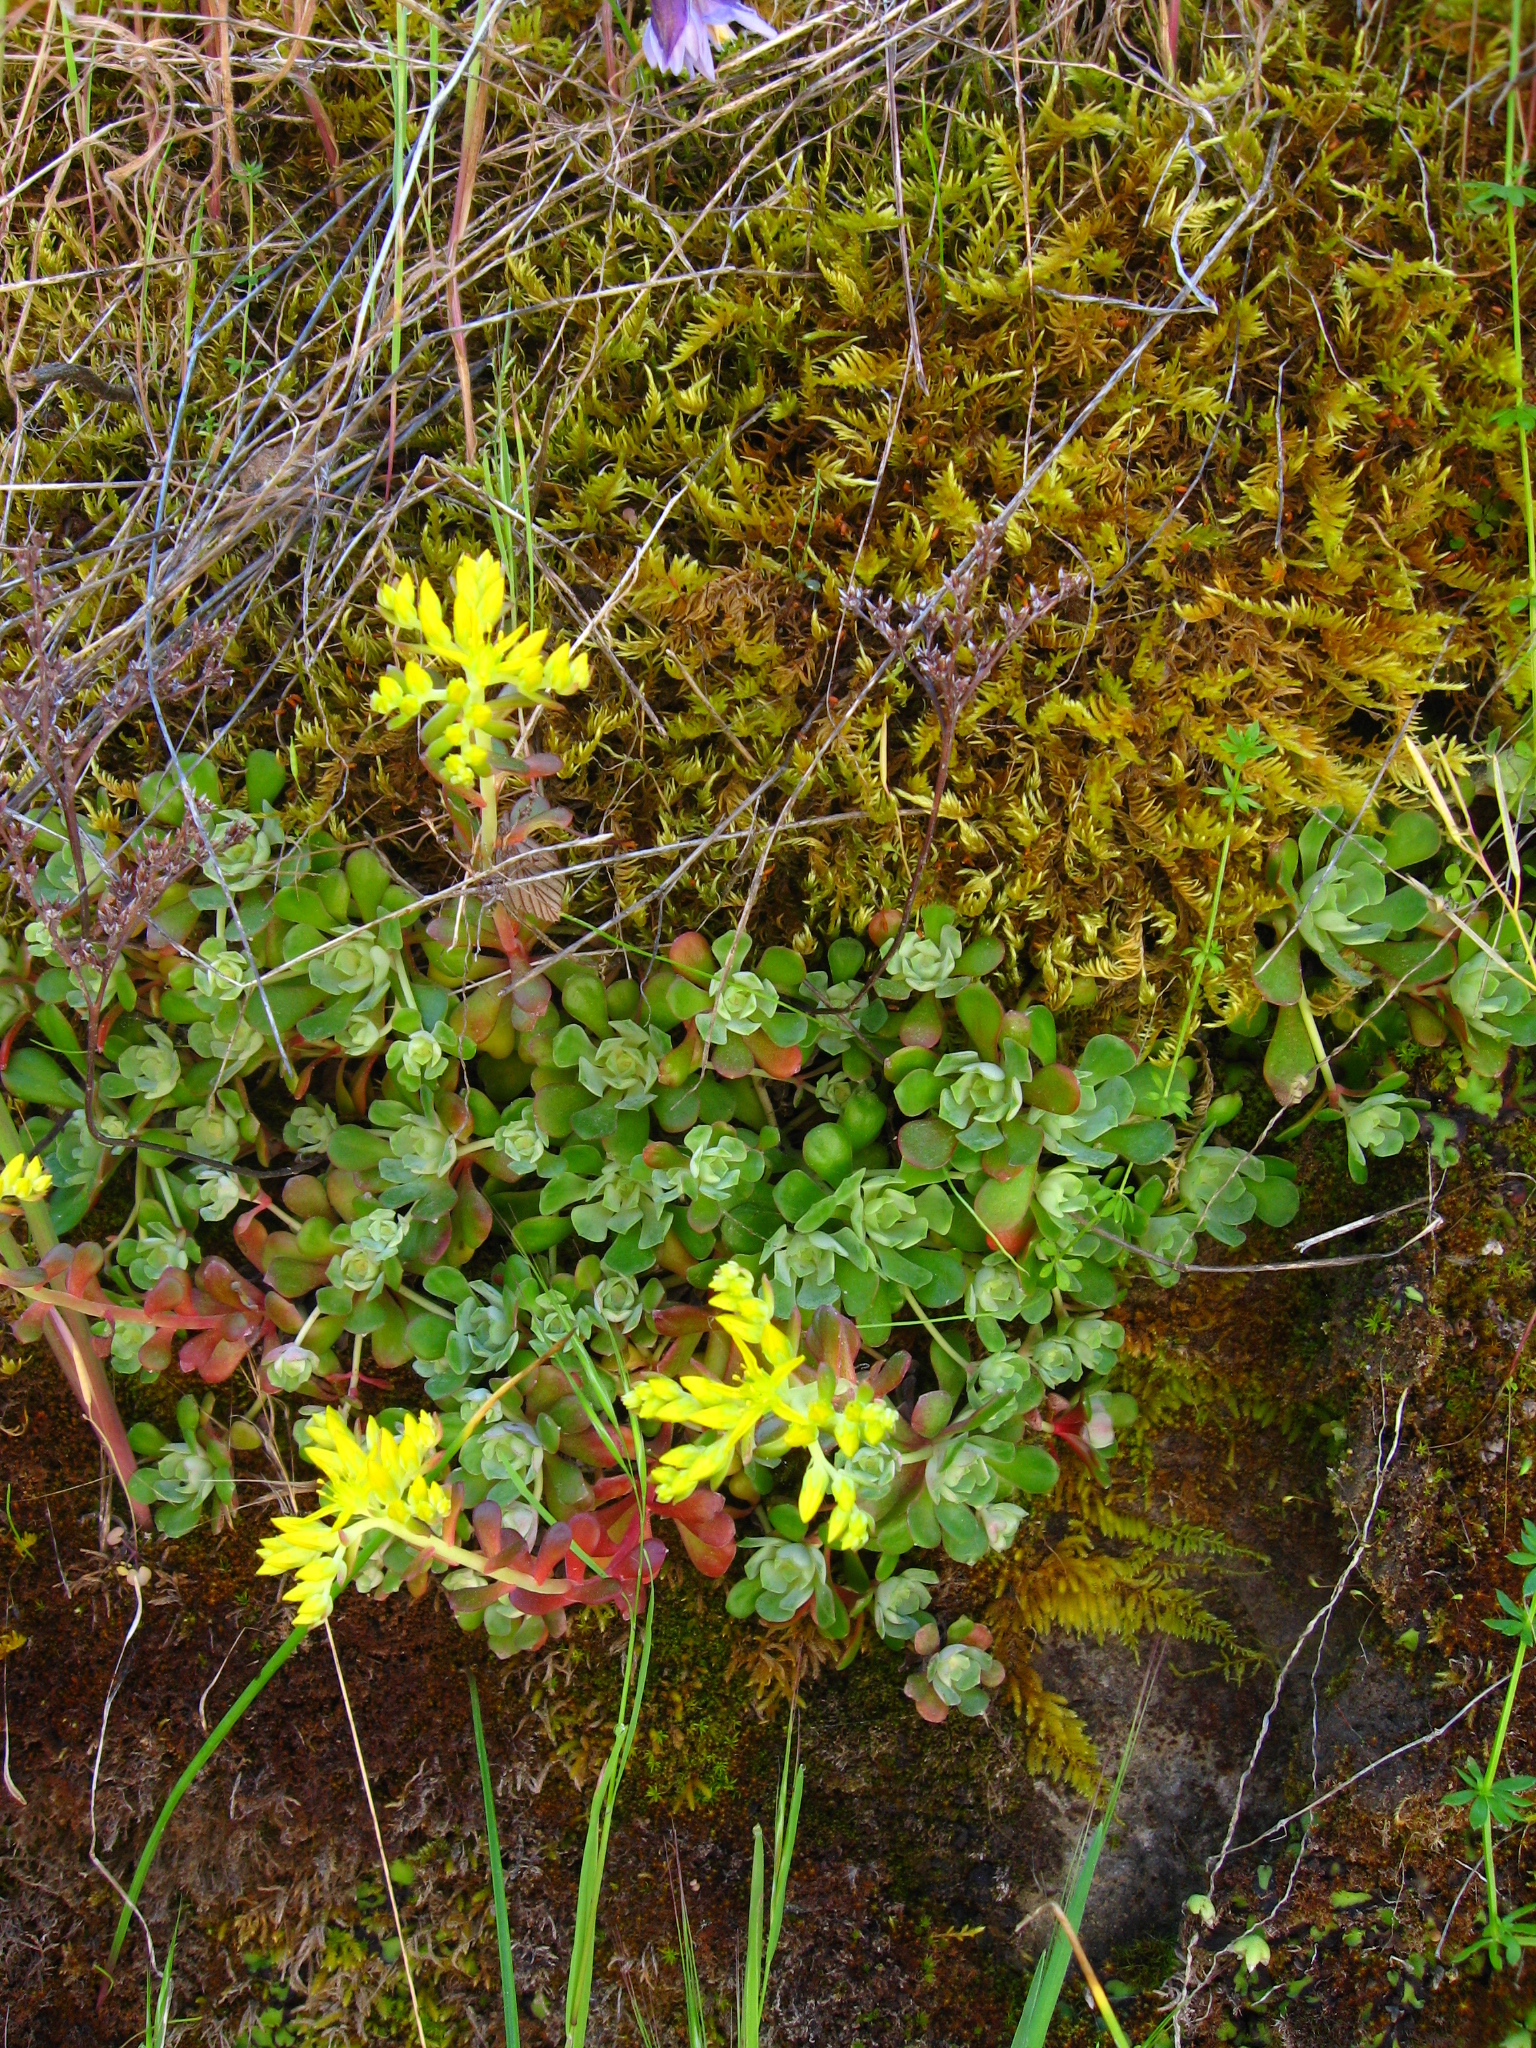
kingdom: Plantae
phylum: Tracheophyta
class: Magnoliopsida
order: Saxifragales
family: Crassulaceae
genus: Sedum
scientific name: Sedum spathulifolium
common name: Colorado stonecrop
